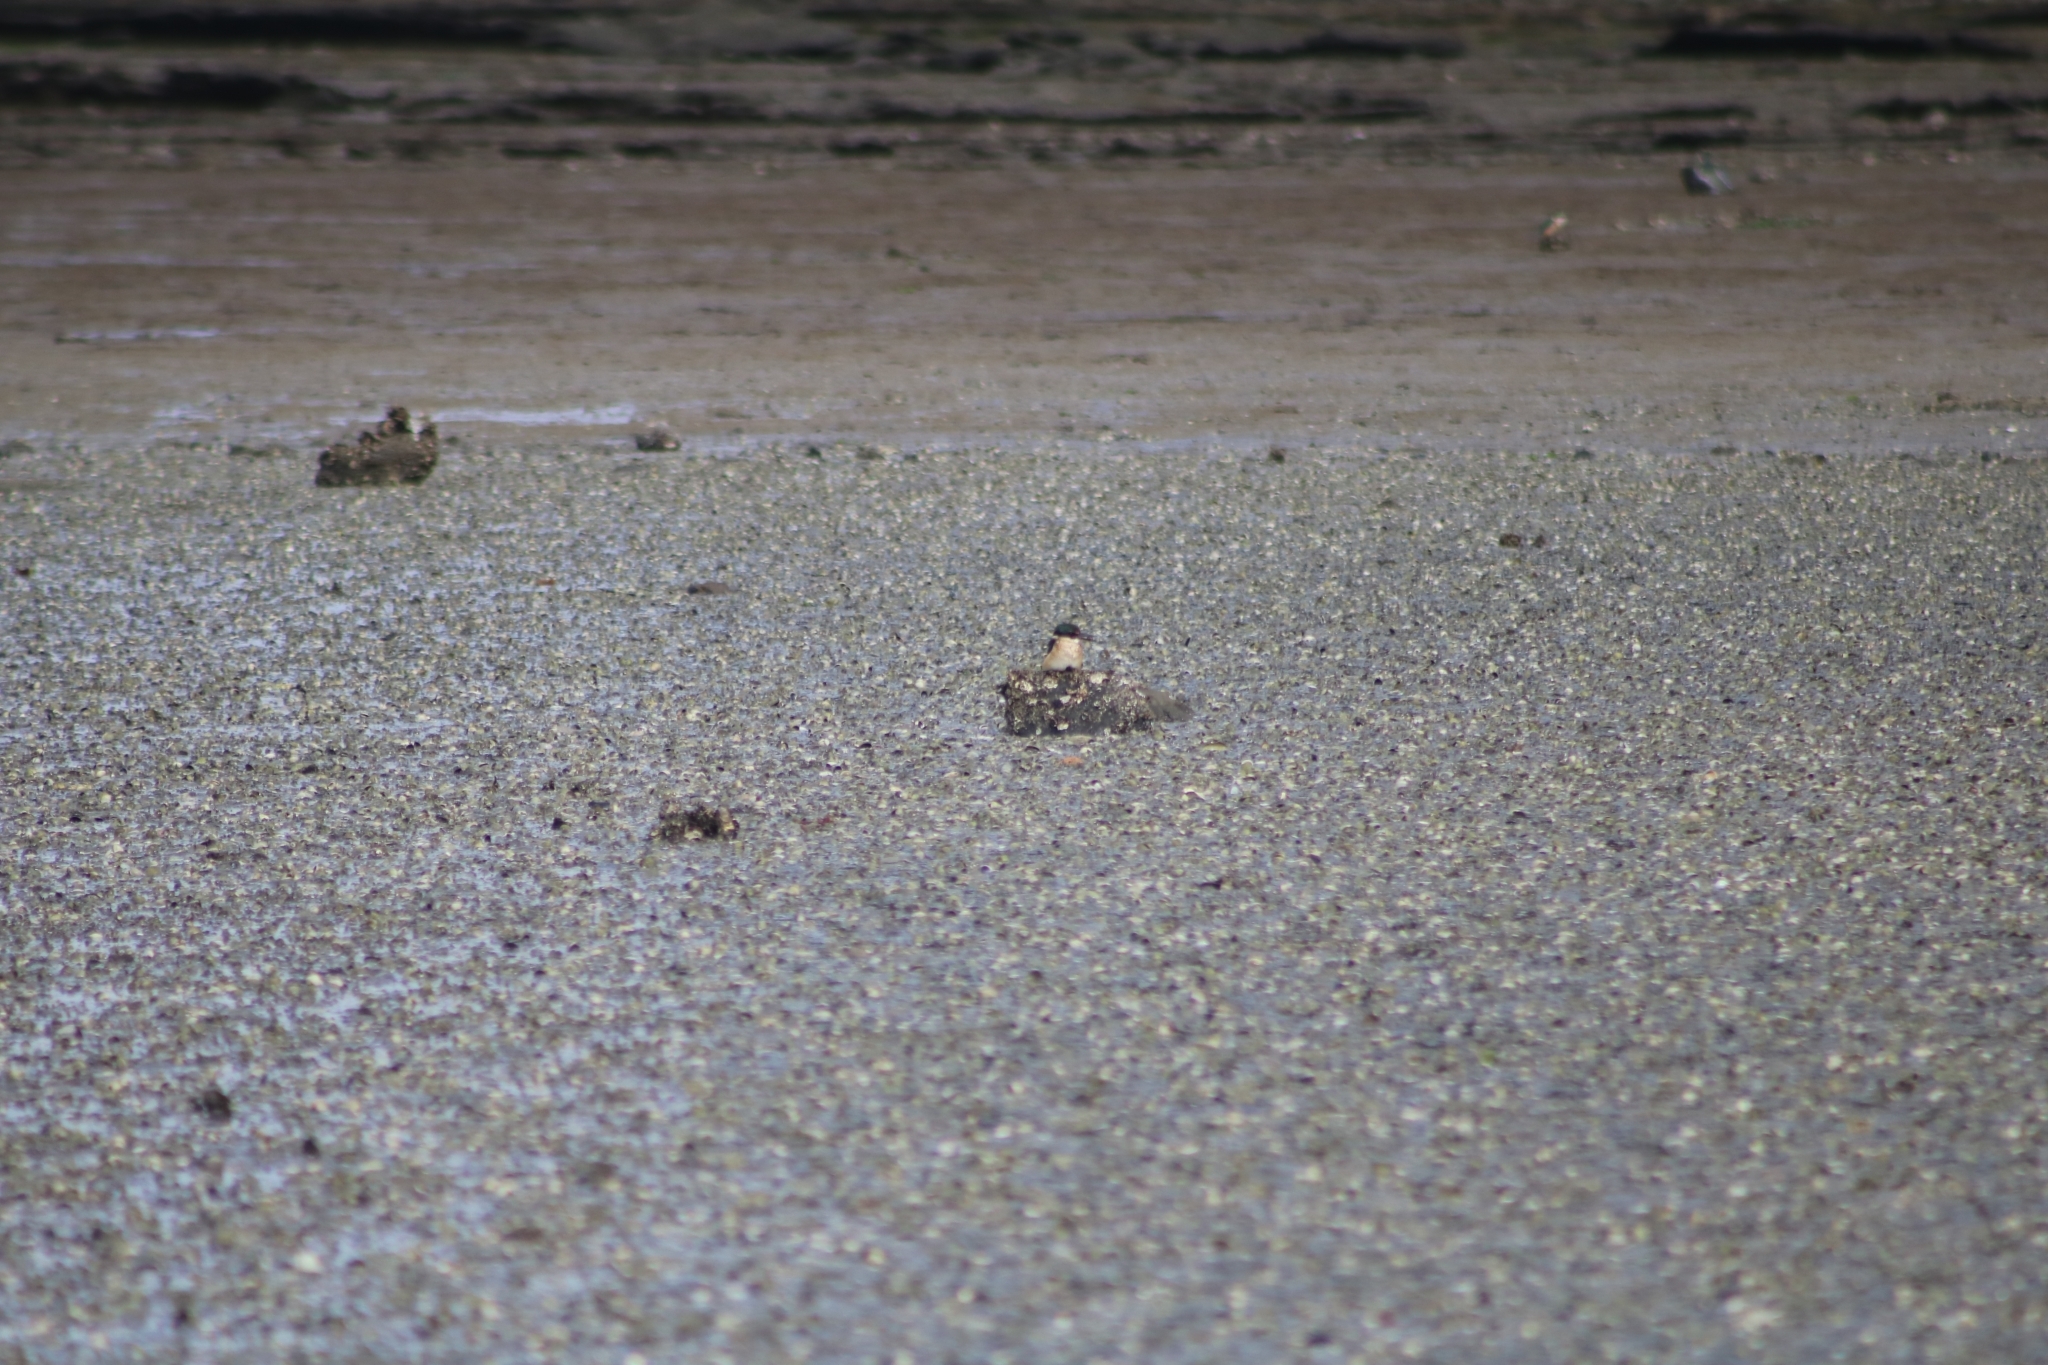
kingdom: Animalia
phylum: Chordata
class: Aves
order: Coraciiformes
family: Alcedinidae
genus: Todiramphus
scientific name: Todiramphus sanctus
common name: Sacred kingfisher
